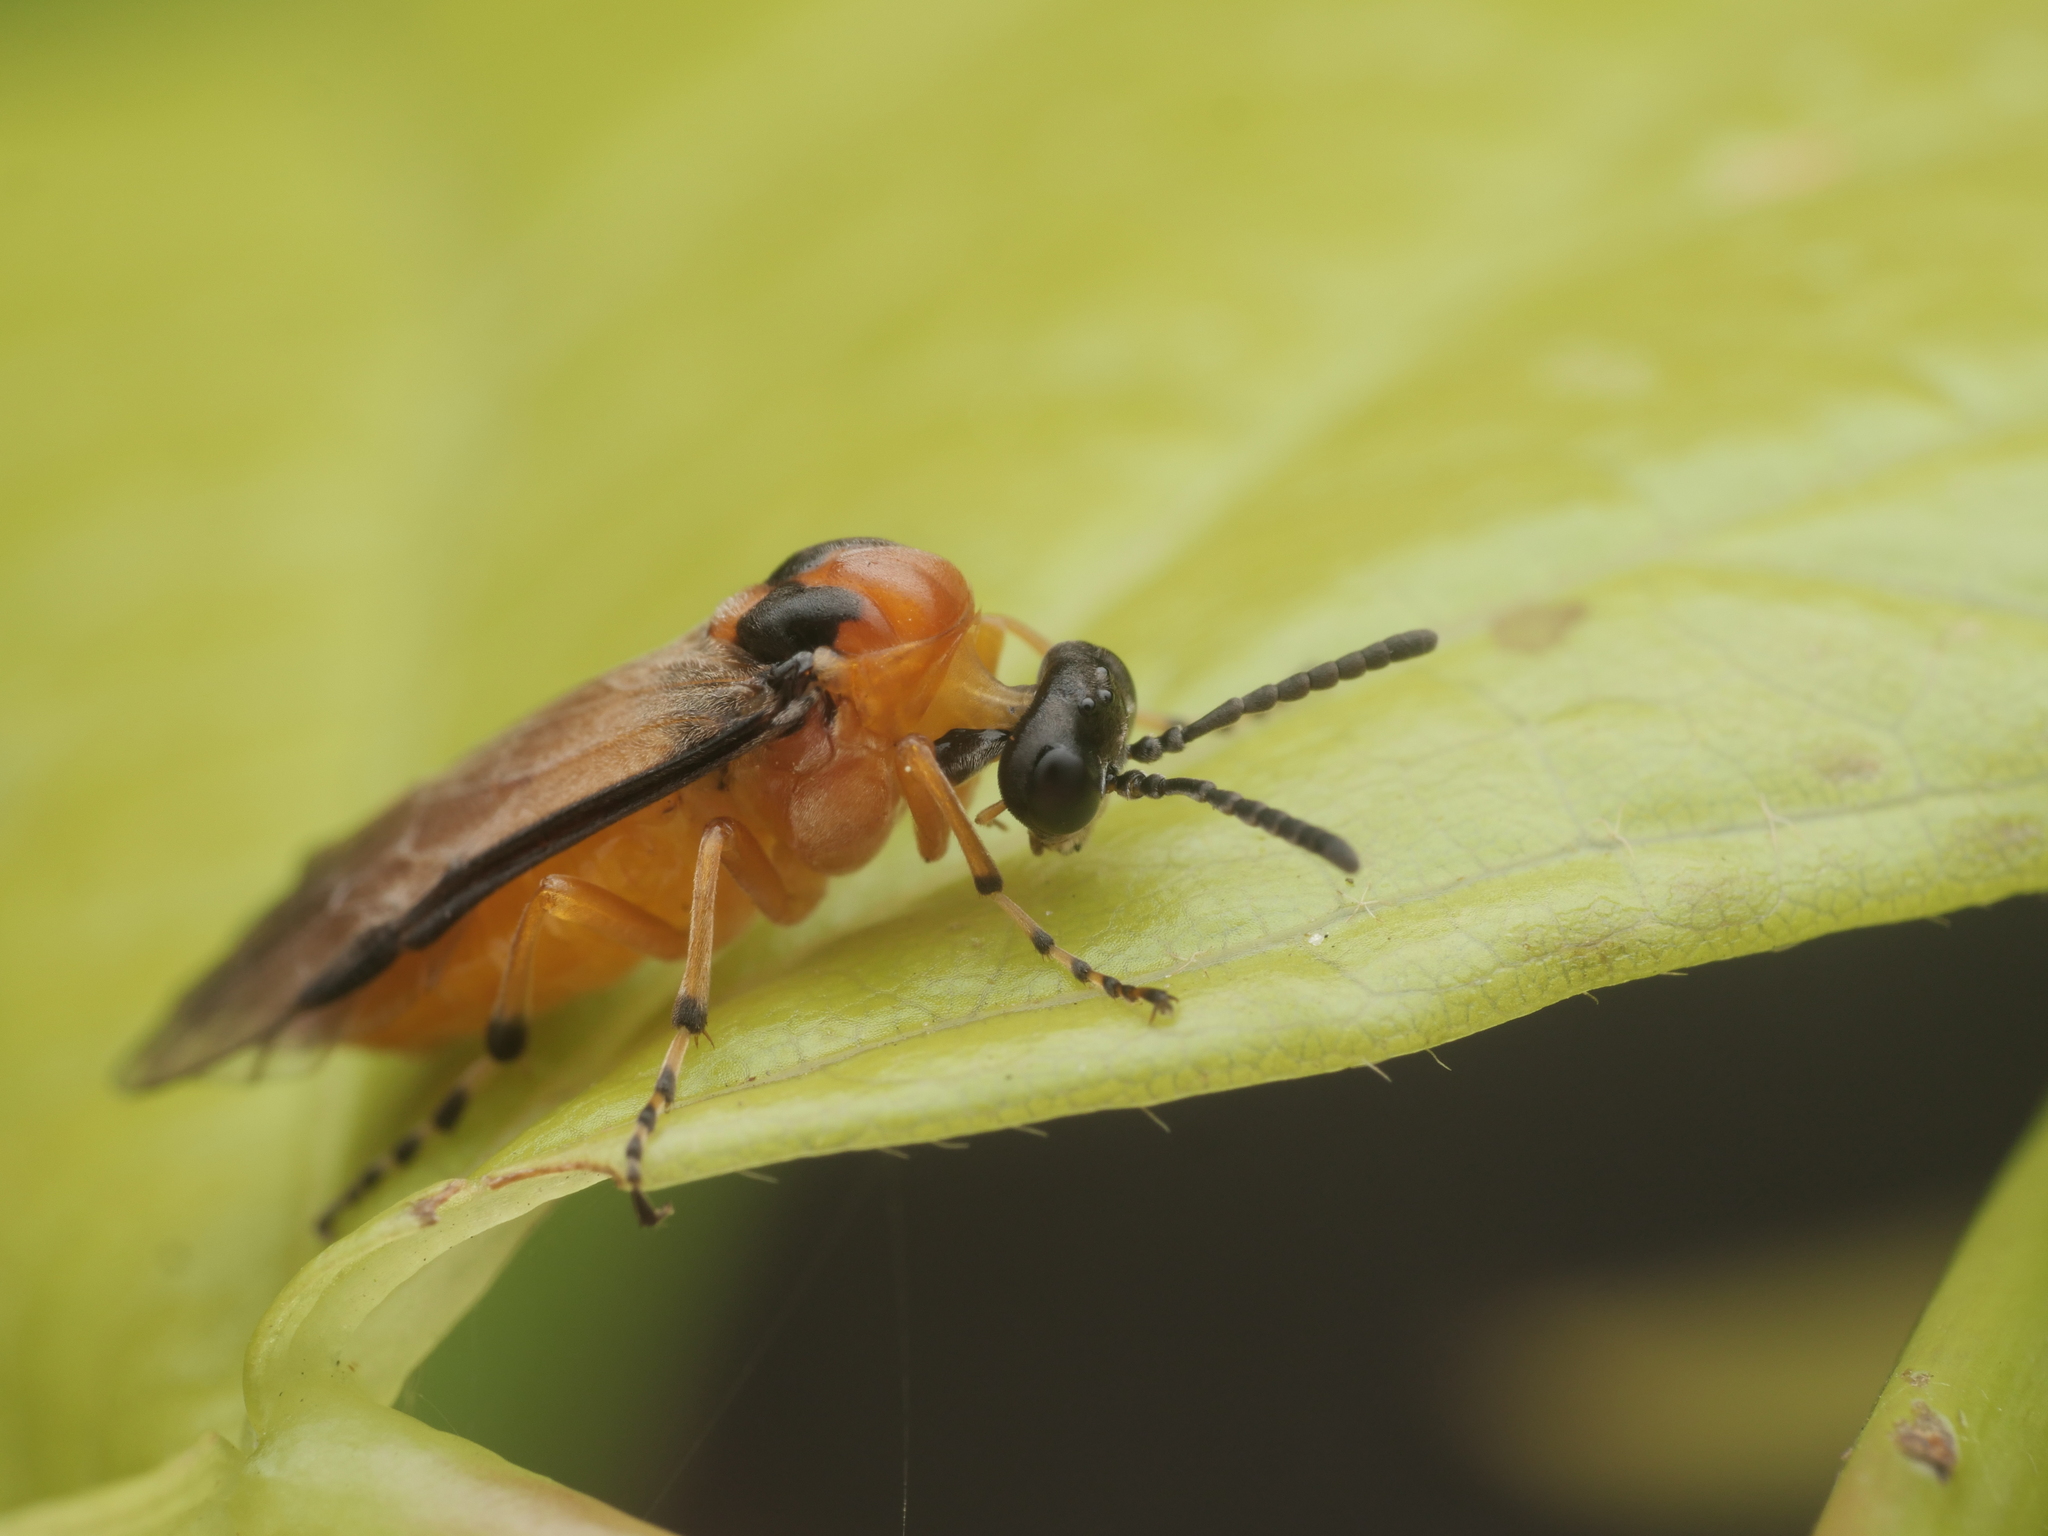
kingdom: Animalia
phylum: Arthropoda
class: Insecta
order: Hymenoptera
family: Tenthredinidae
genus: Athalia
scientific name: Athalia rosae
